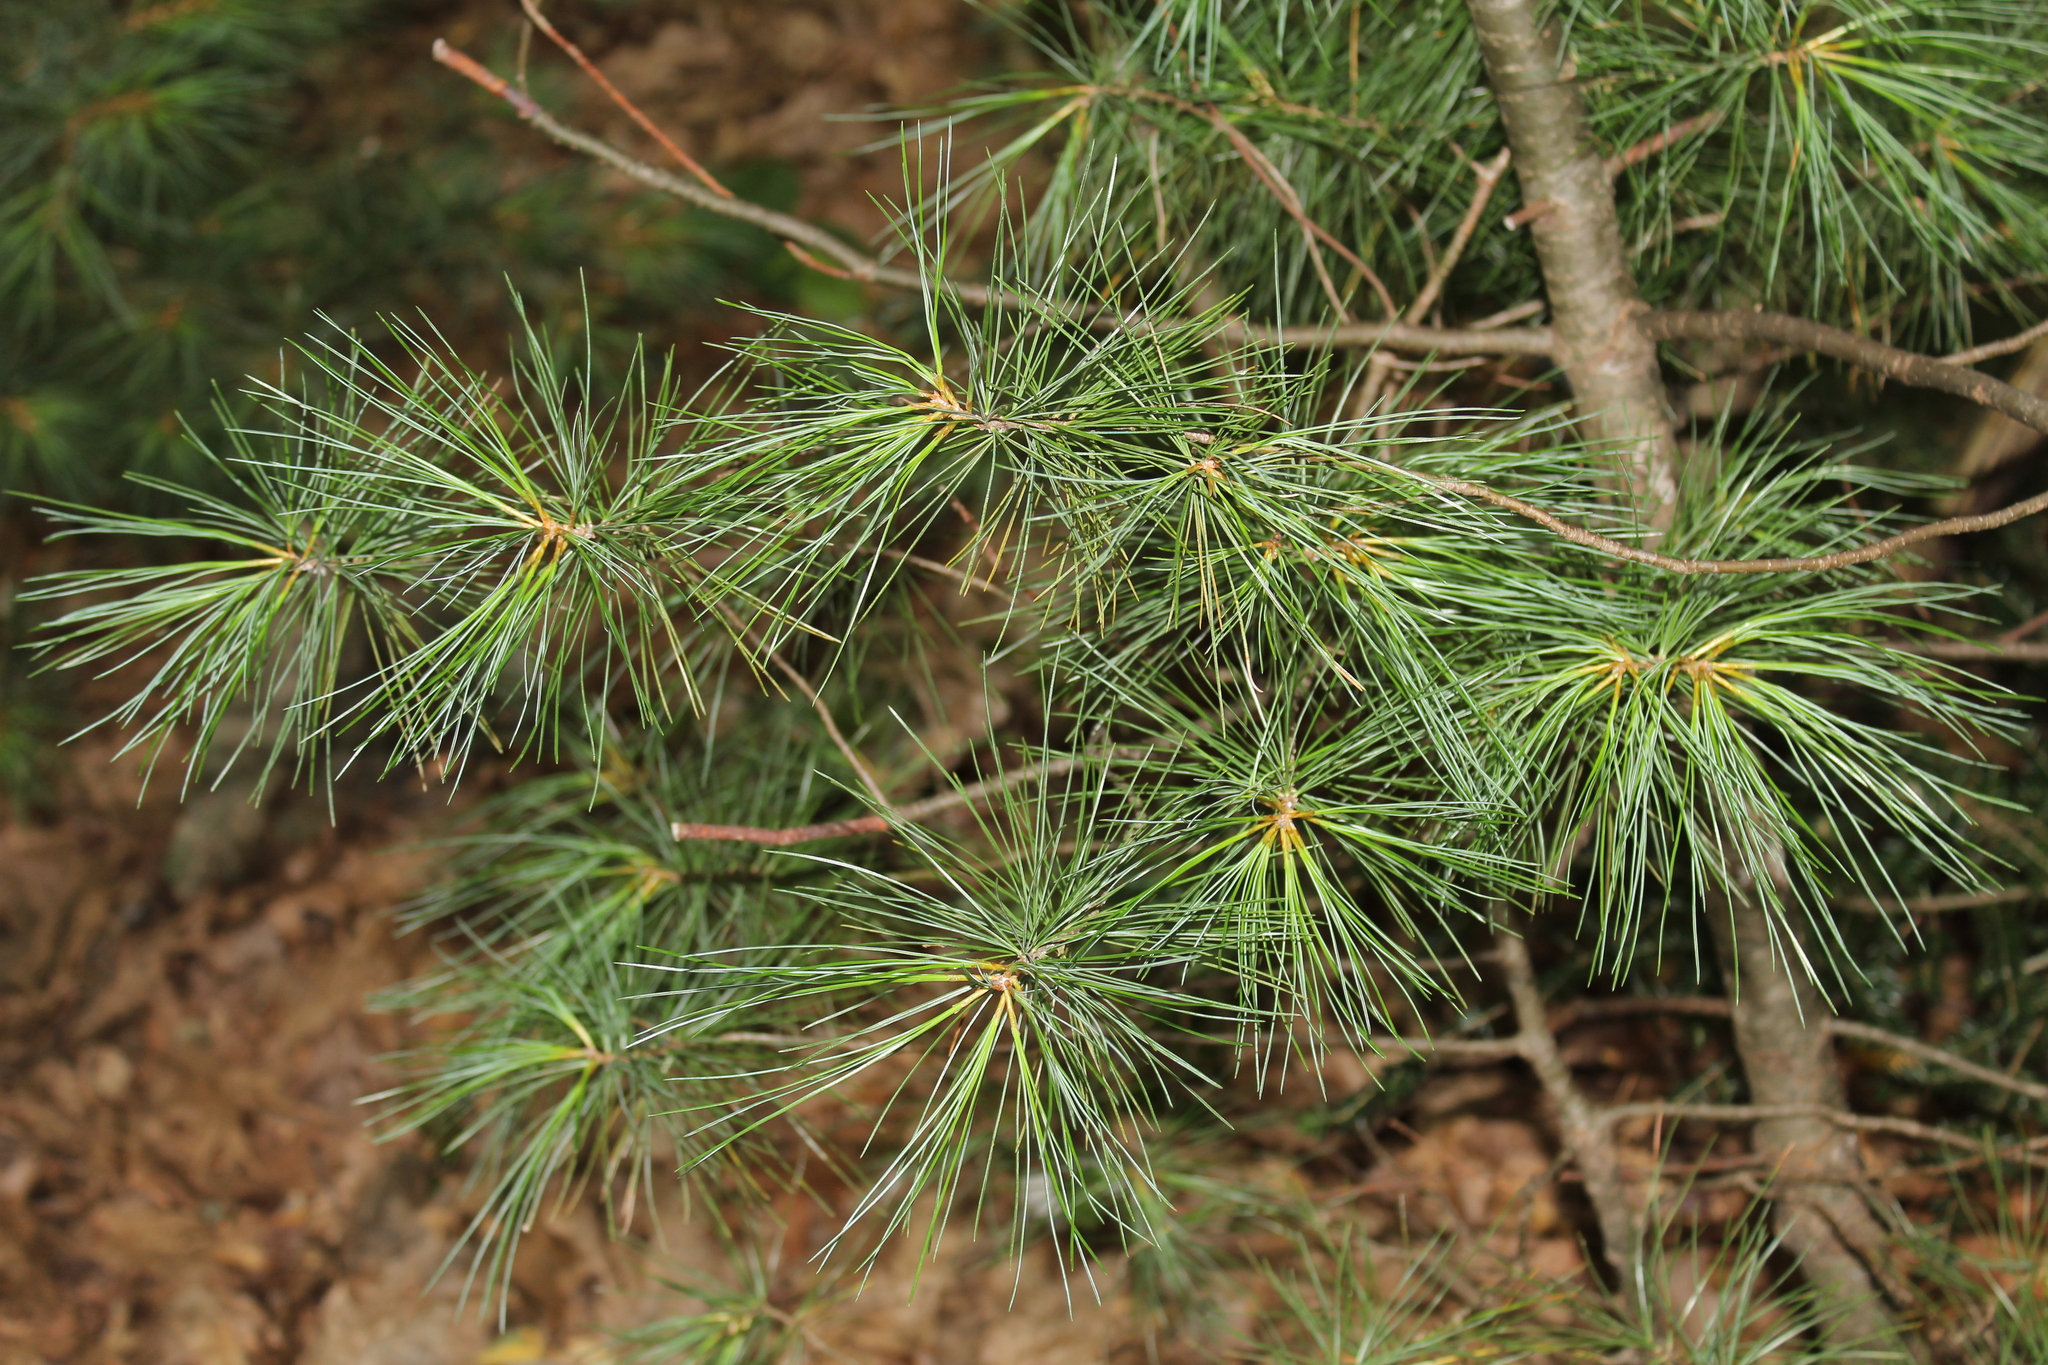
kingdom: Plantae
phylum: Tracheophyta
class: Pinopsida
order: Pinales
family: Pinaceae
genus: Pinus
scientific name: Pinus strobus
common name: Weymouth pine
